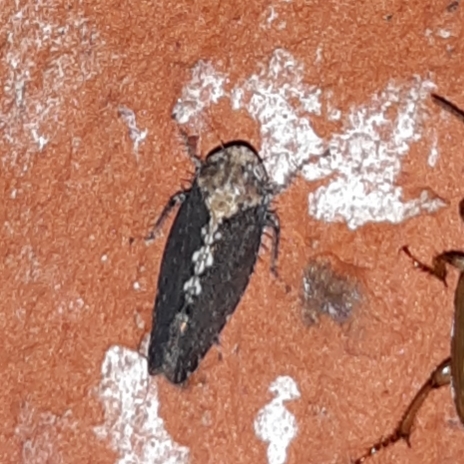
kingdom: Animalia
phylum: Arthropoda
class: Insecta
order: Hemiptera
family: Cicadellidae
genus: Excultanus
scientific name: Excultanus excultus
